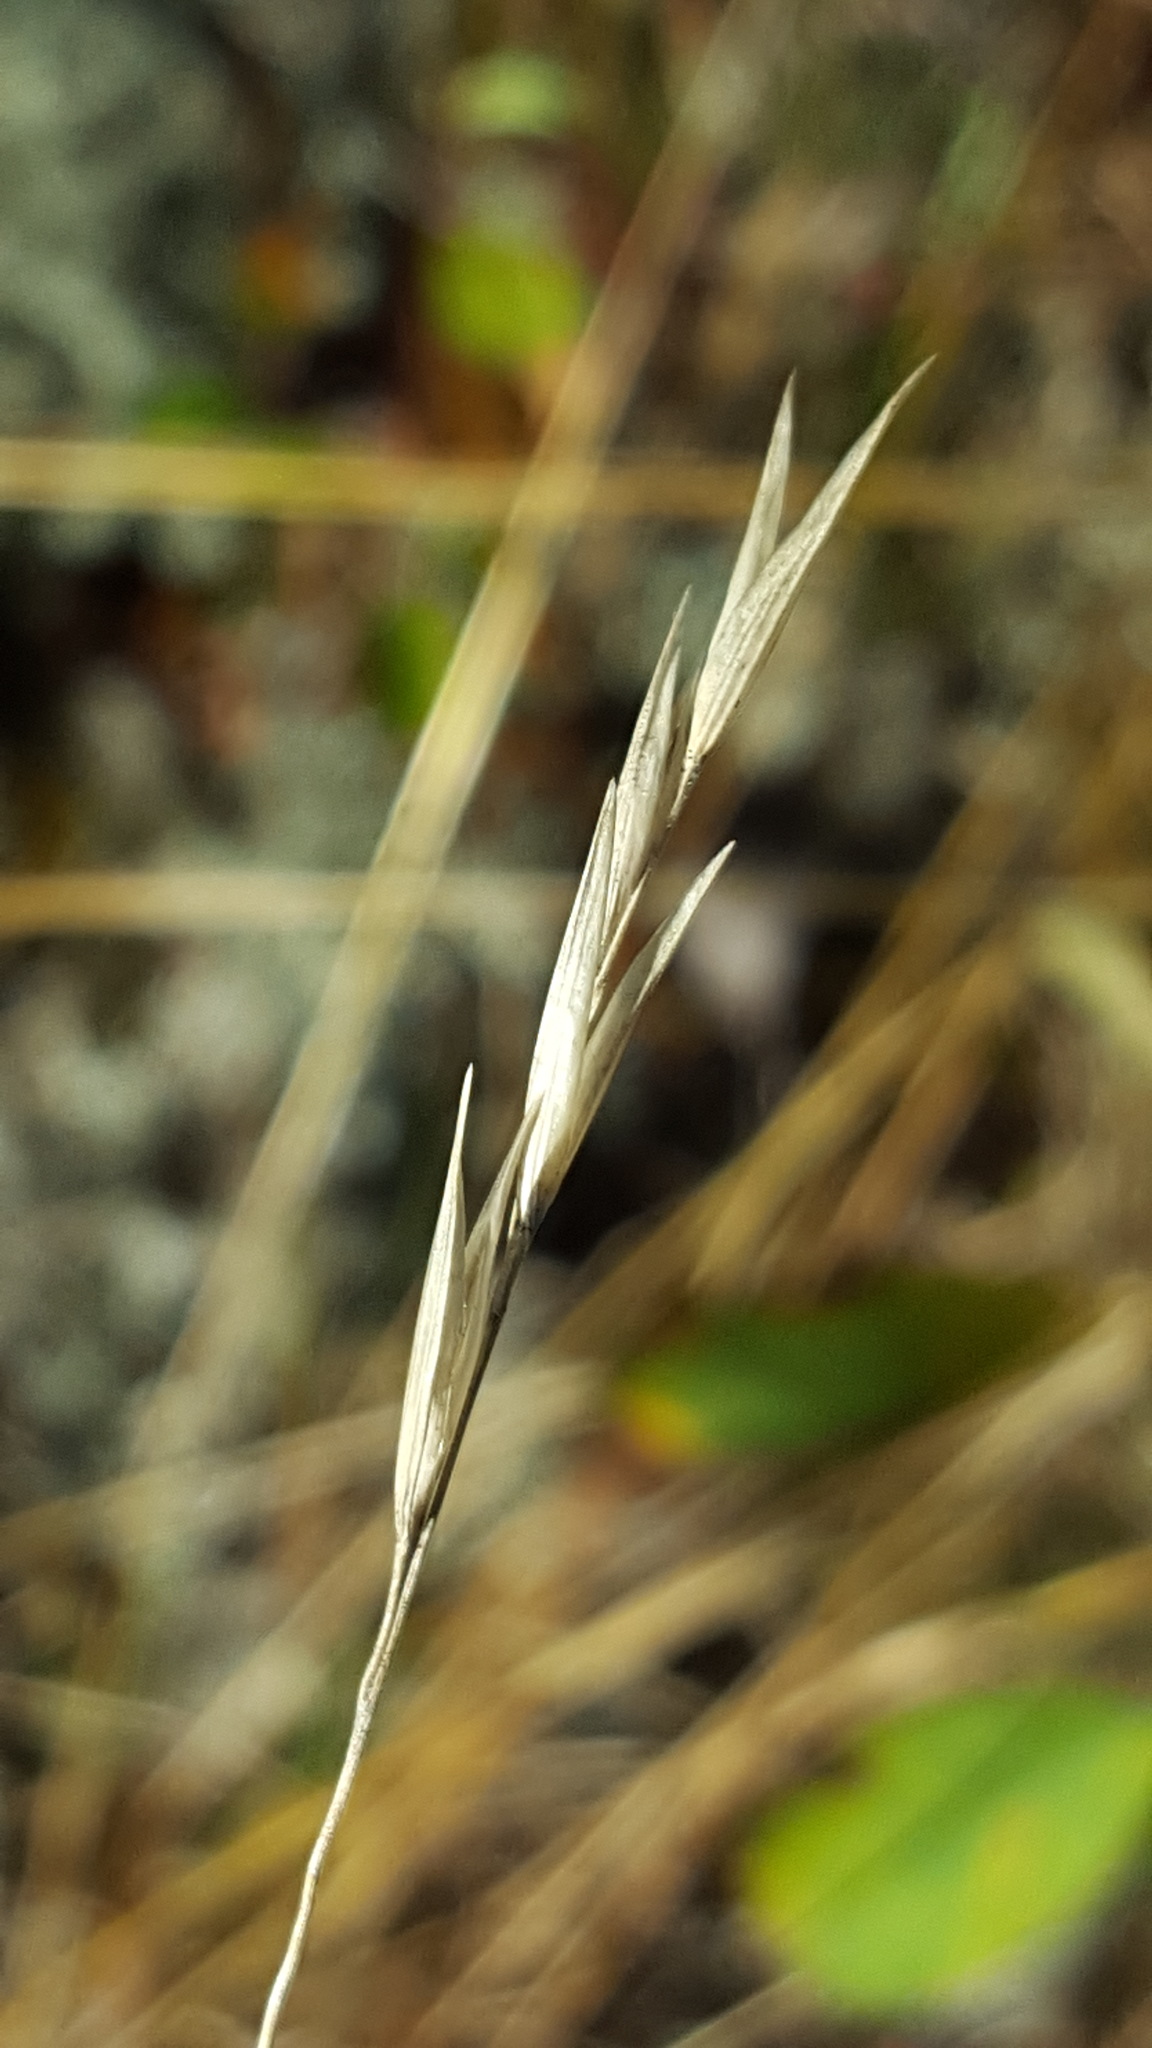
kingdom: Plantae
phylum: Tracheophyta
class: Liliopsida
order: Poales
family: Poaceae
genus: Danthonia
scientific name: Danthonia spicata
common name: Common wild oatgrass
